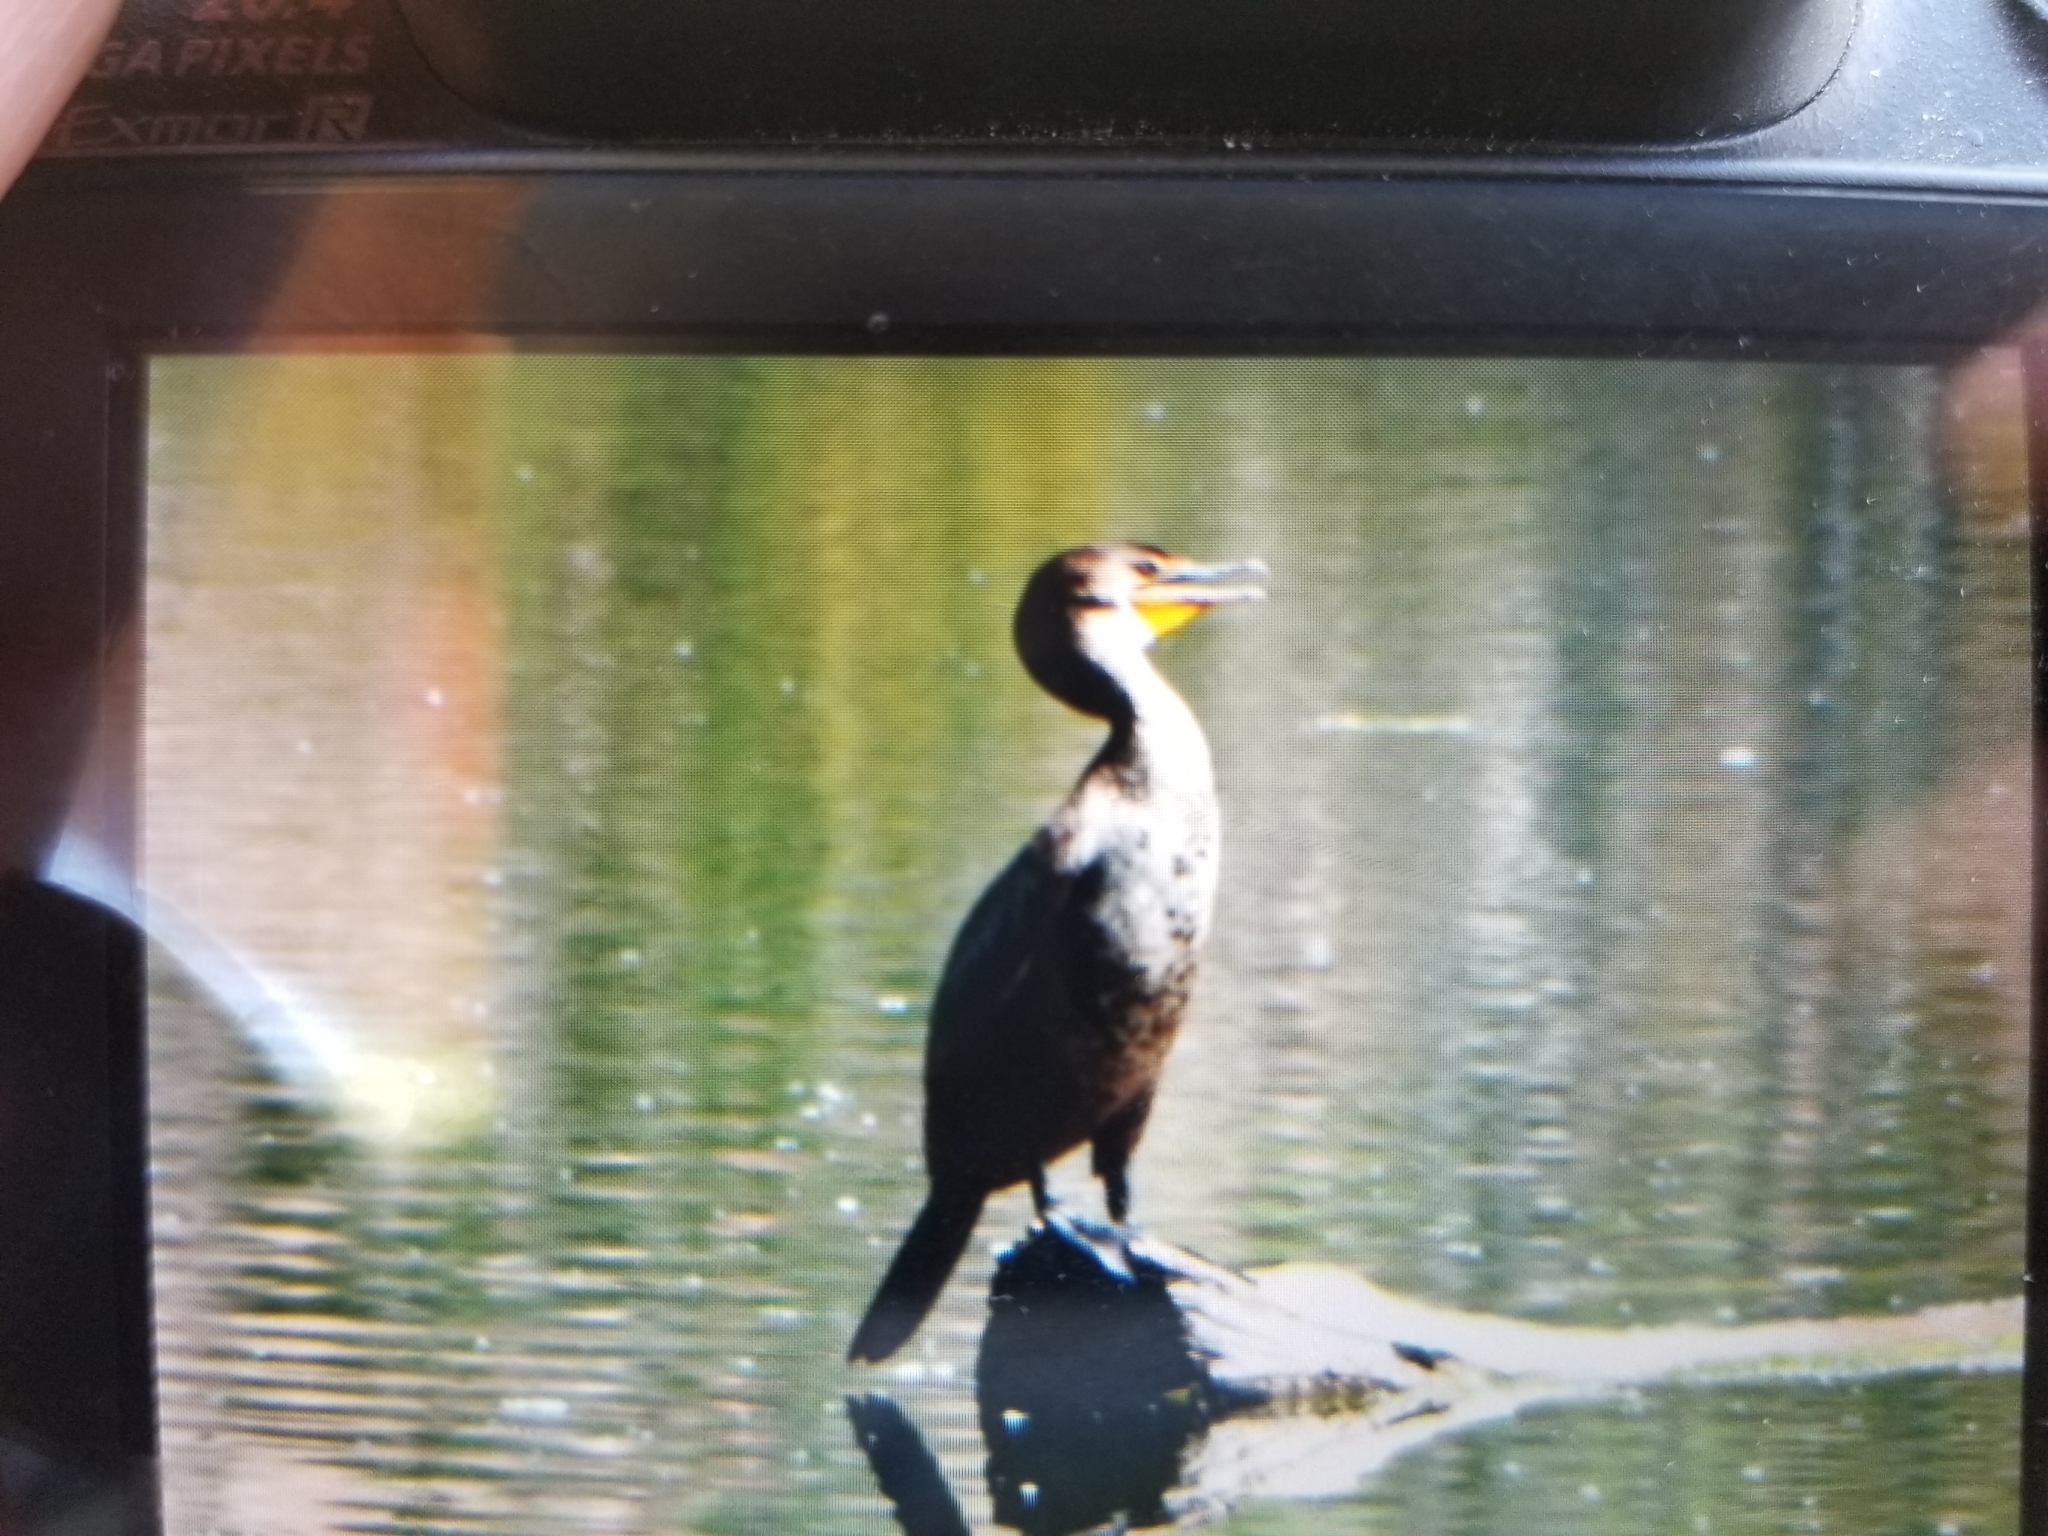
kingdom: Animalia
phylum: Chordata
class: Aves
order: Suliformes
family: Phalacrocoracidae
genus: Phalacrocorax
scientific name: Phalacrocorax auritus
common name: Double-crested cormorant
